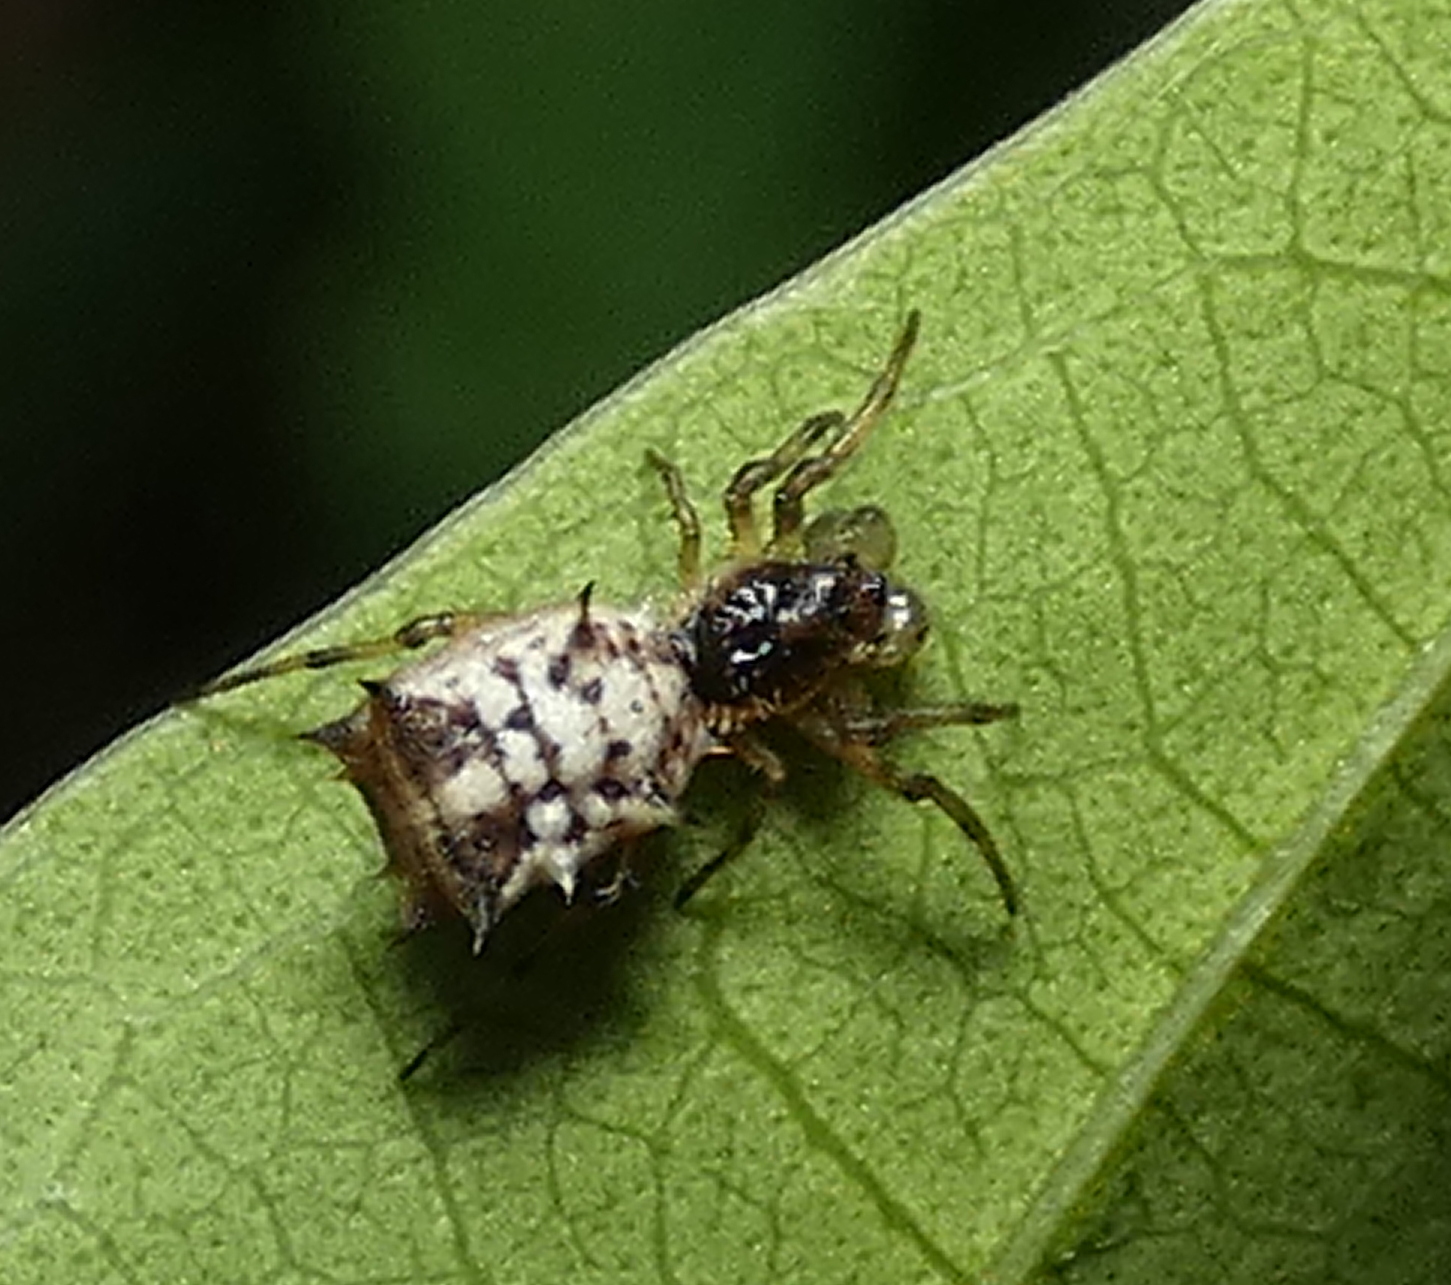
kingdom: Animalia
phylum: Arthropoda
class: Arachnida
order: Araneae
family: Araneidae
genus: Micrathena
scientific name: Micrathena picta
